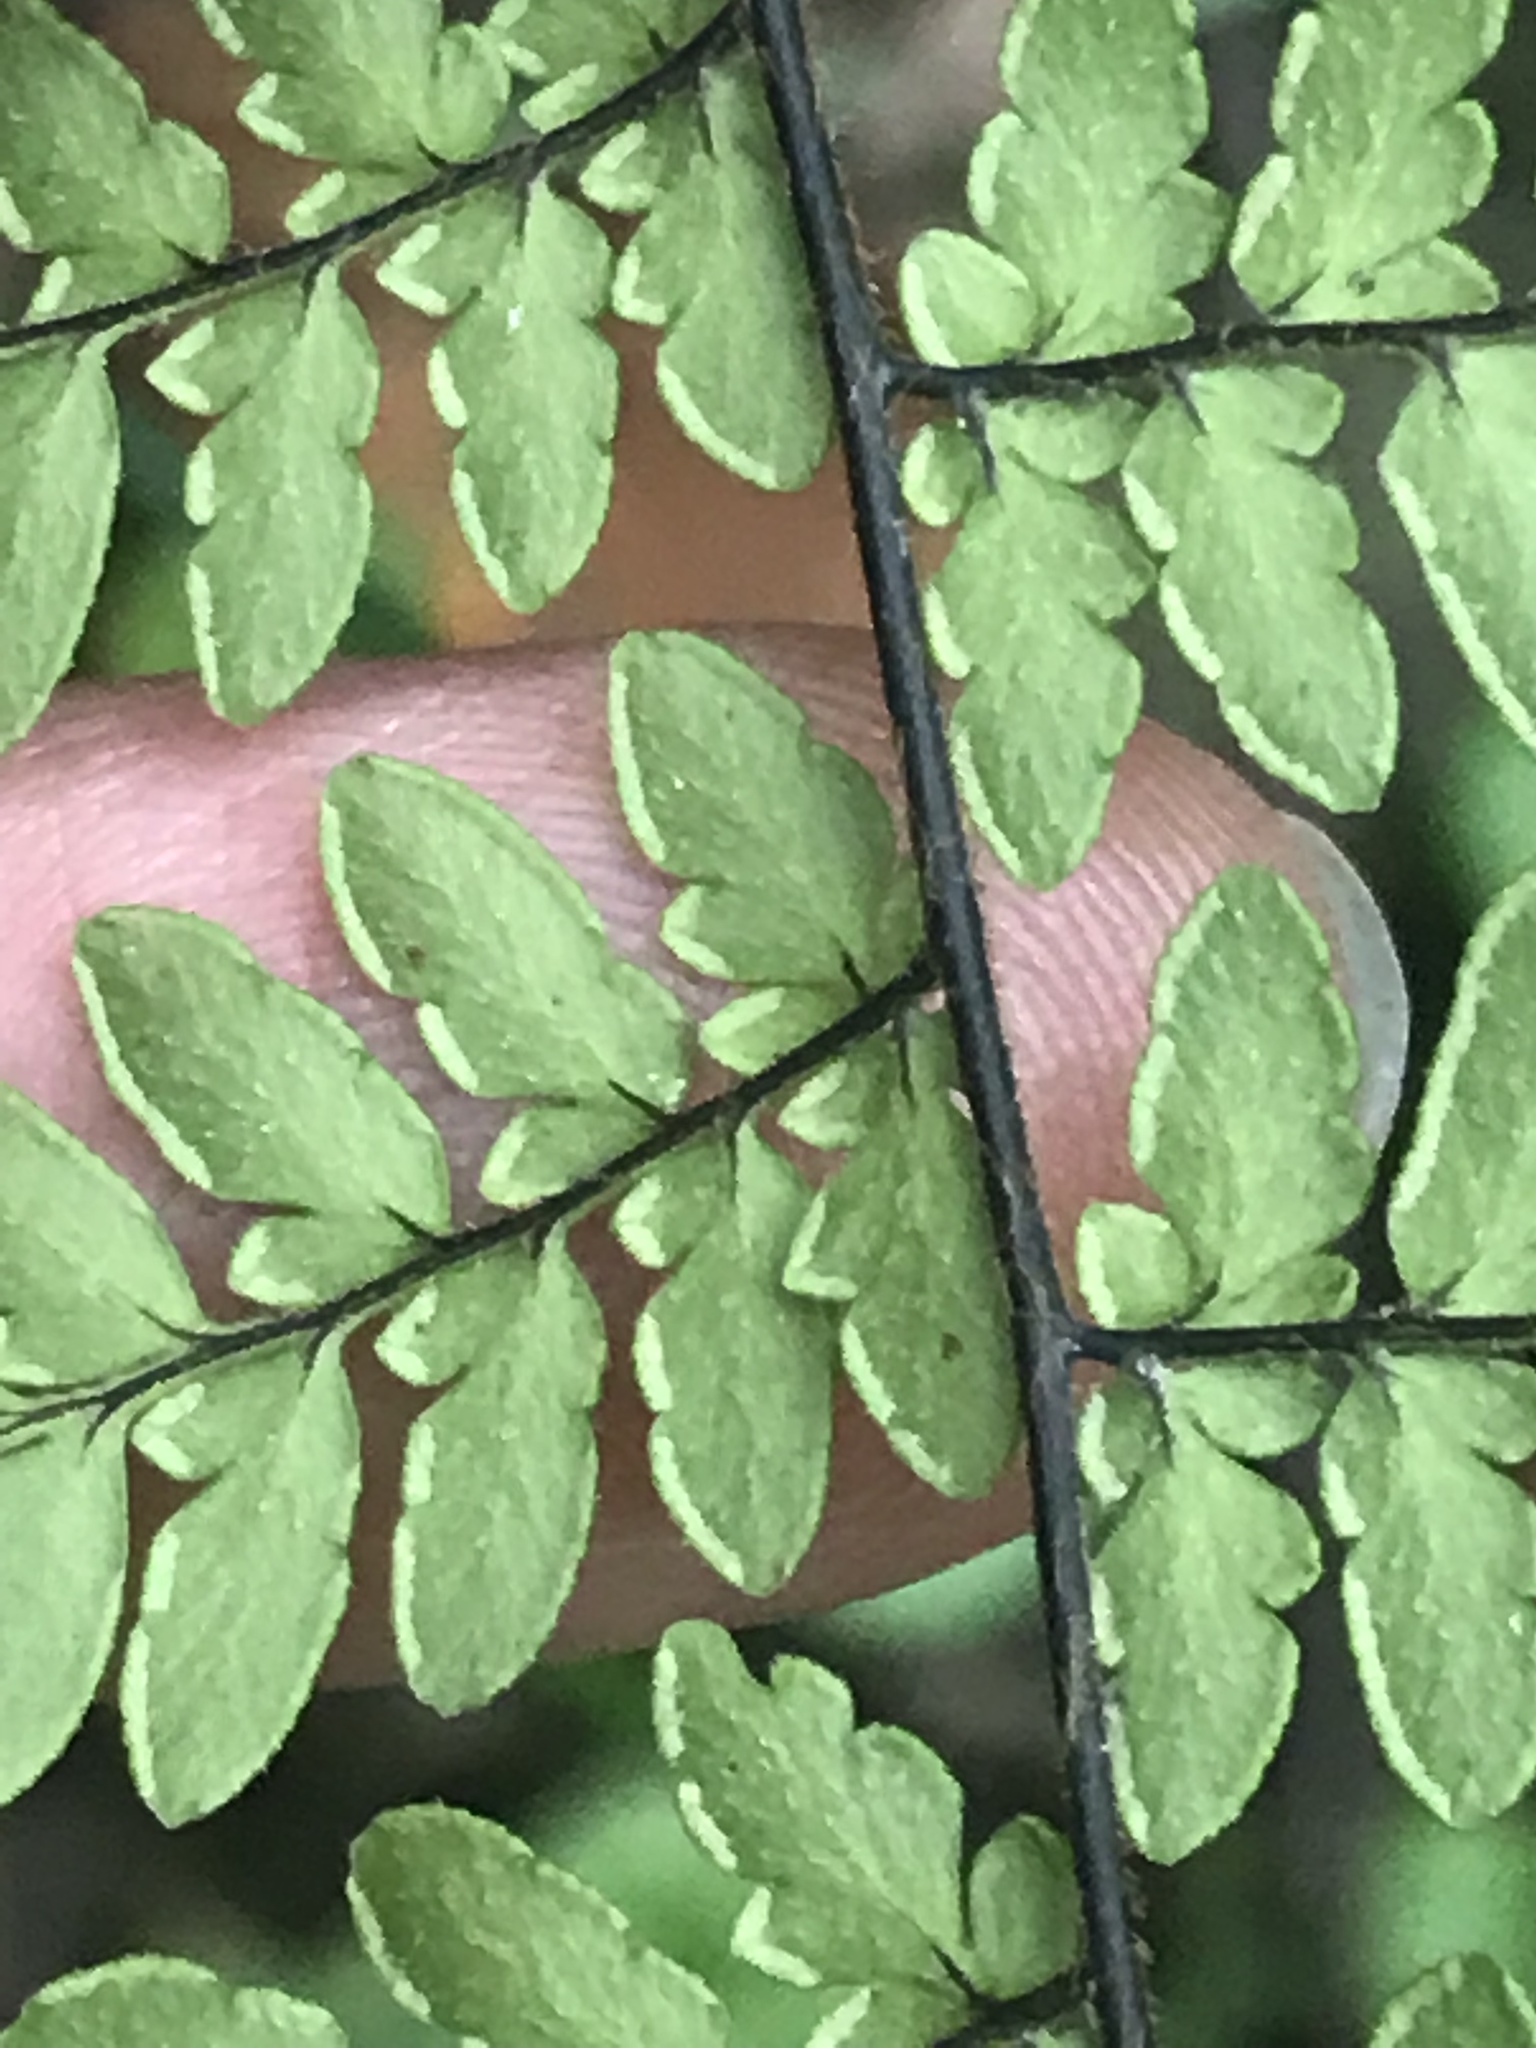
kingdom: Plantae
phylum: Tracheophyta
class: Polypodiopsida
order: Polypodiales
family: Pteridaceae
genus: Myriopteris
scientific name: Myriopteris alabamensis
